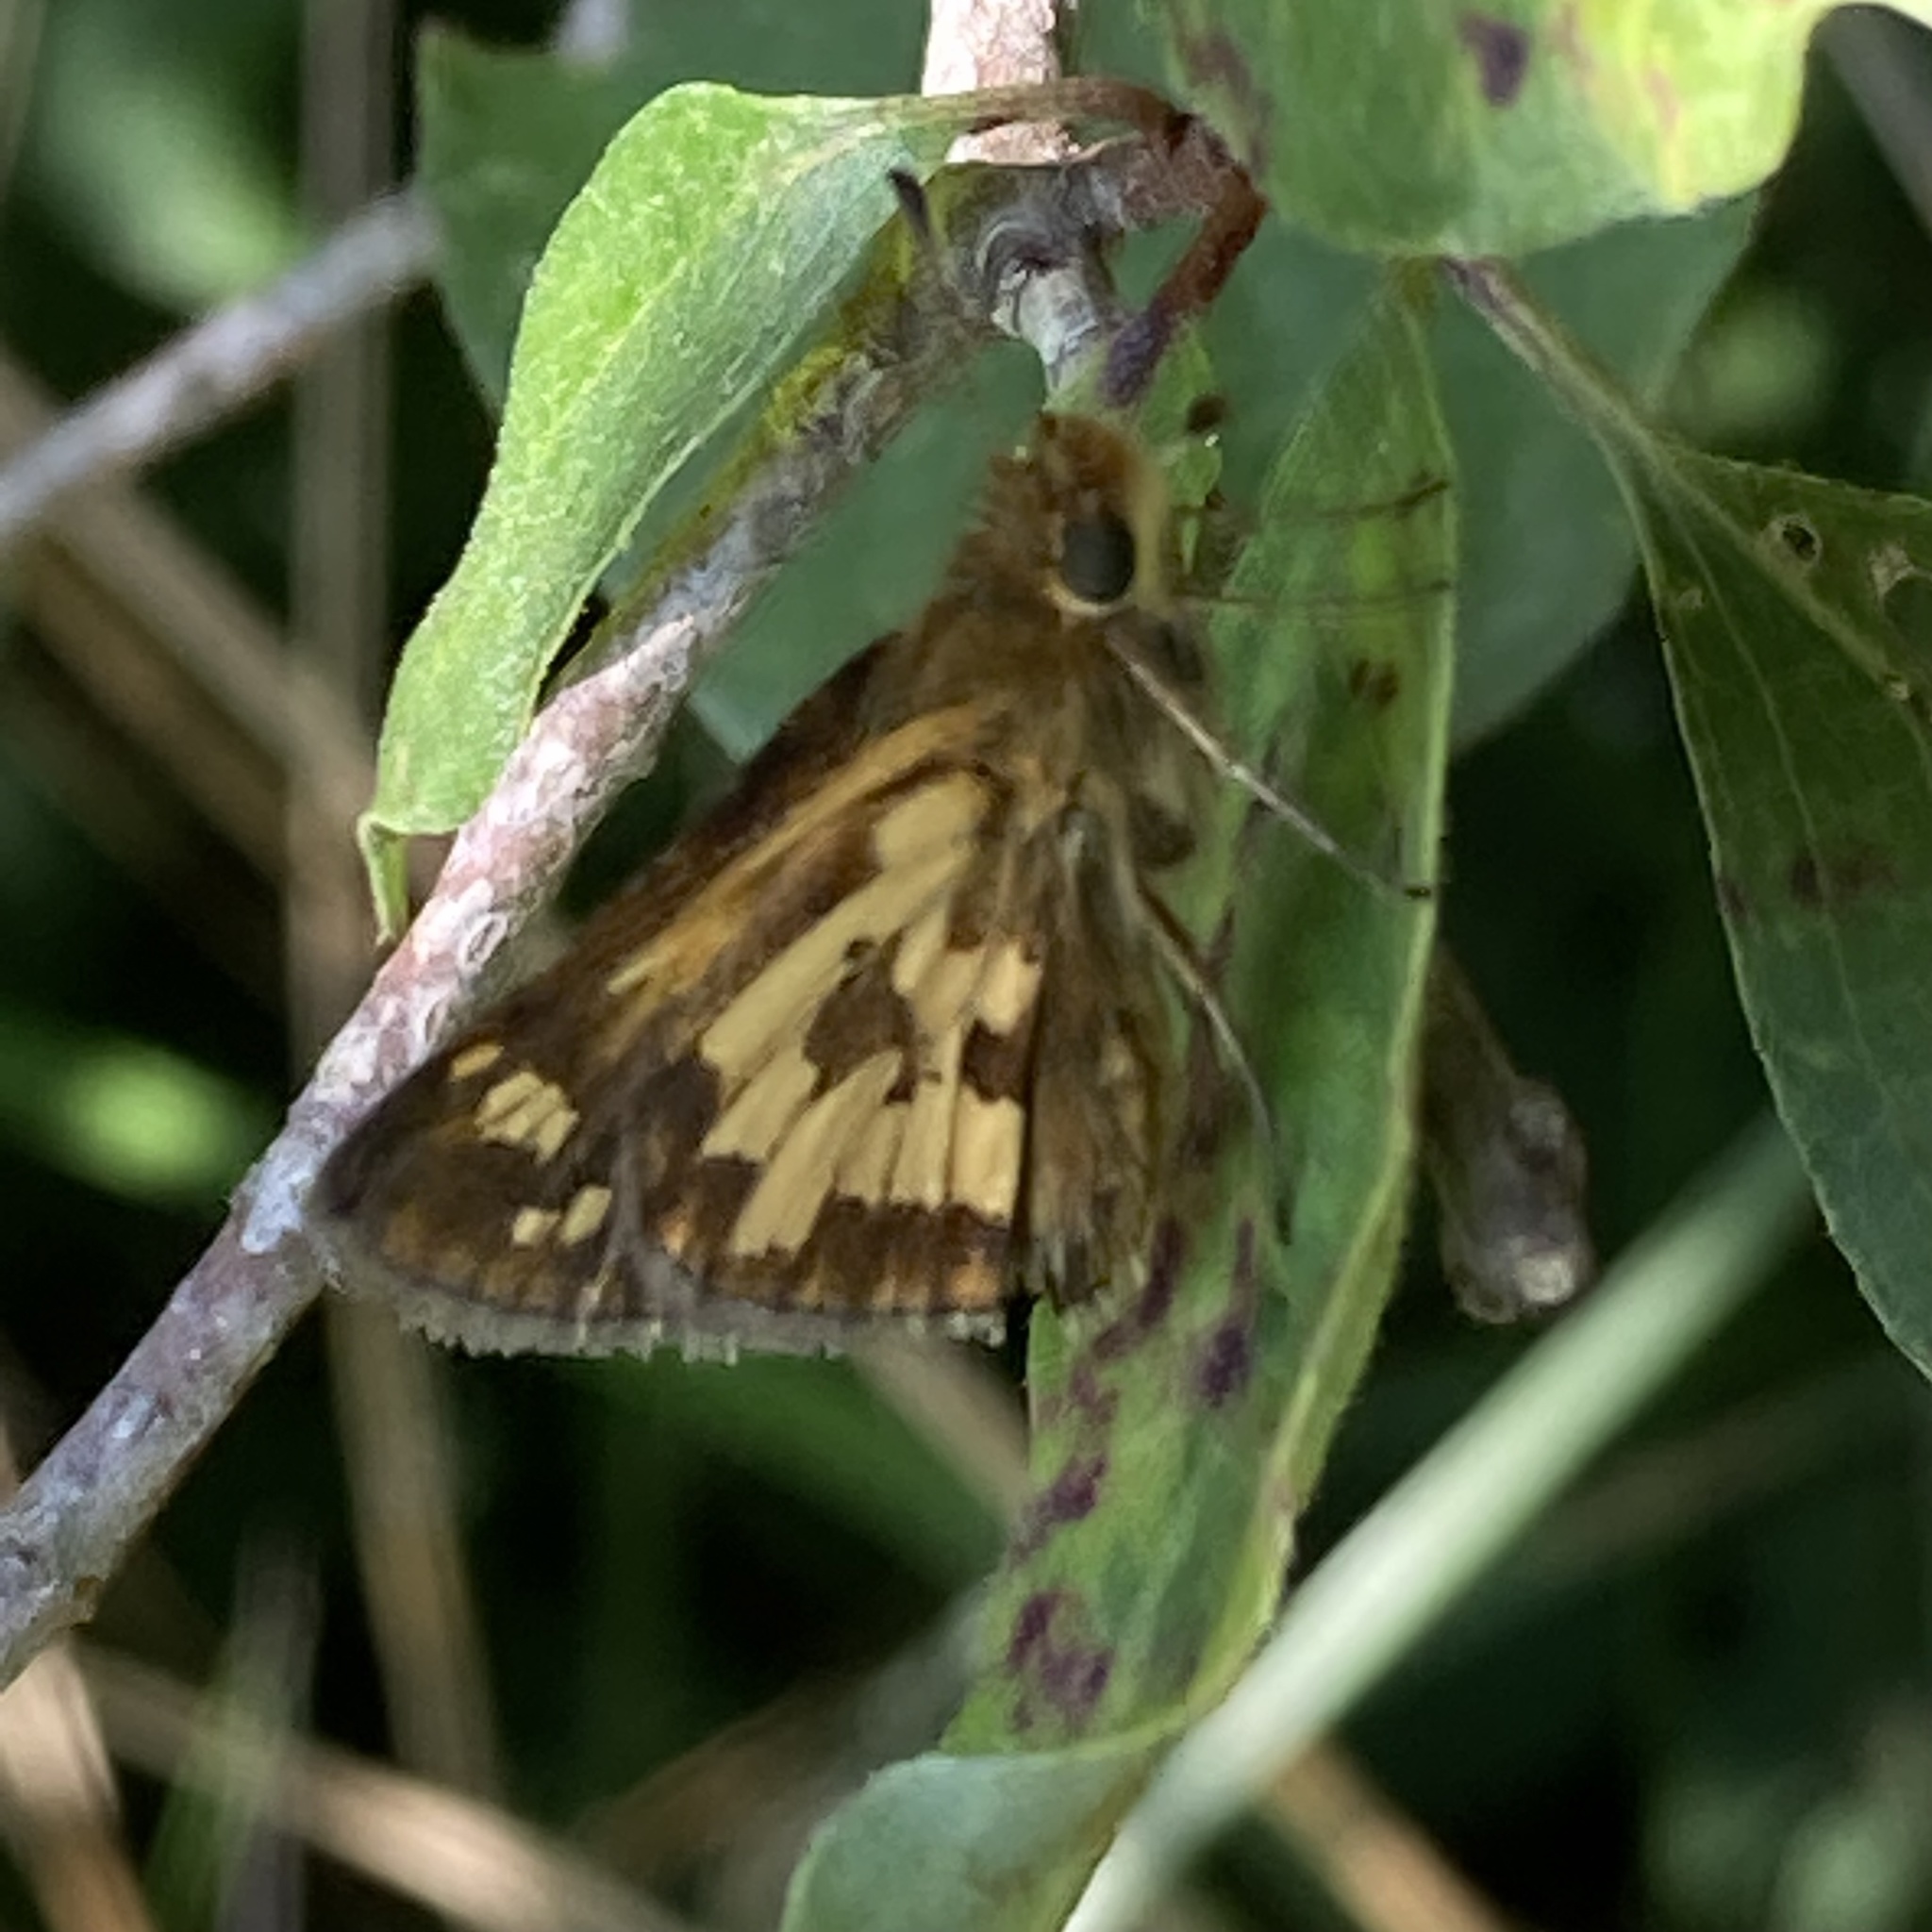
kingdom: Animalia
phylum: Arthropoda
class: Insecta
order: Lepidoptera
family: Hesperiidae
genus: Polites
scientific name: Polites coras
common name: Peck's skipper
